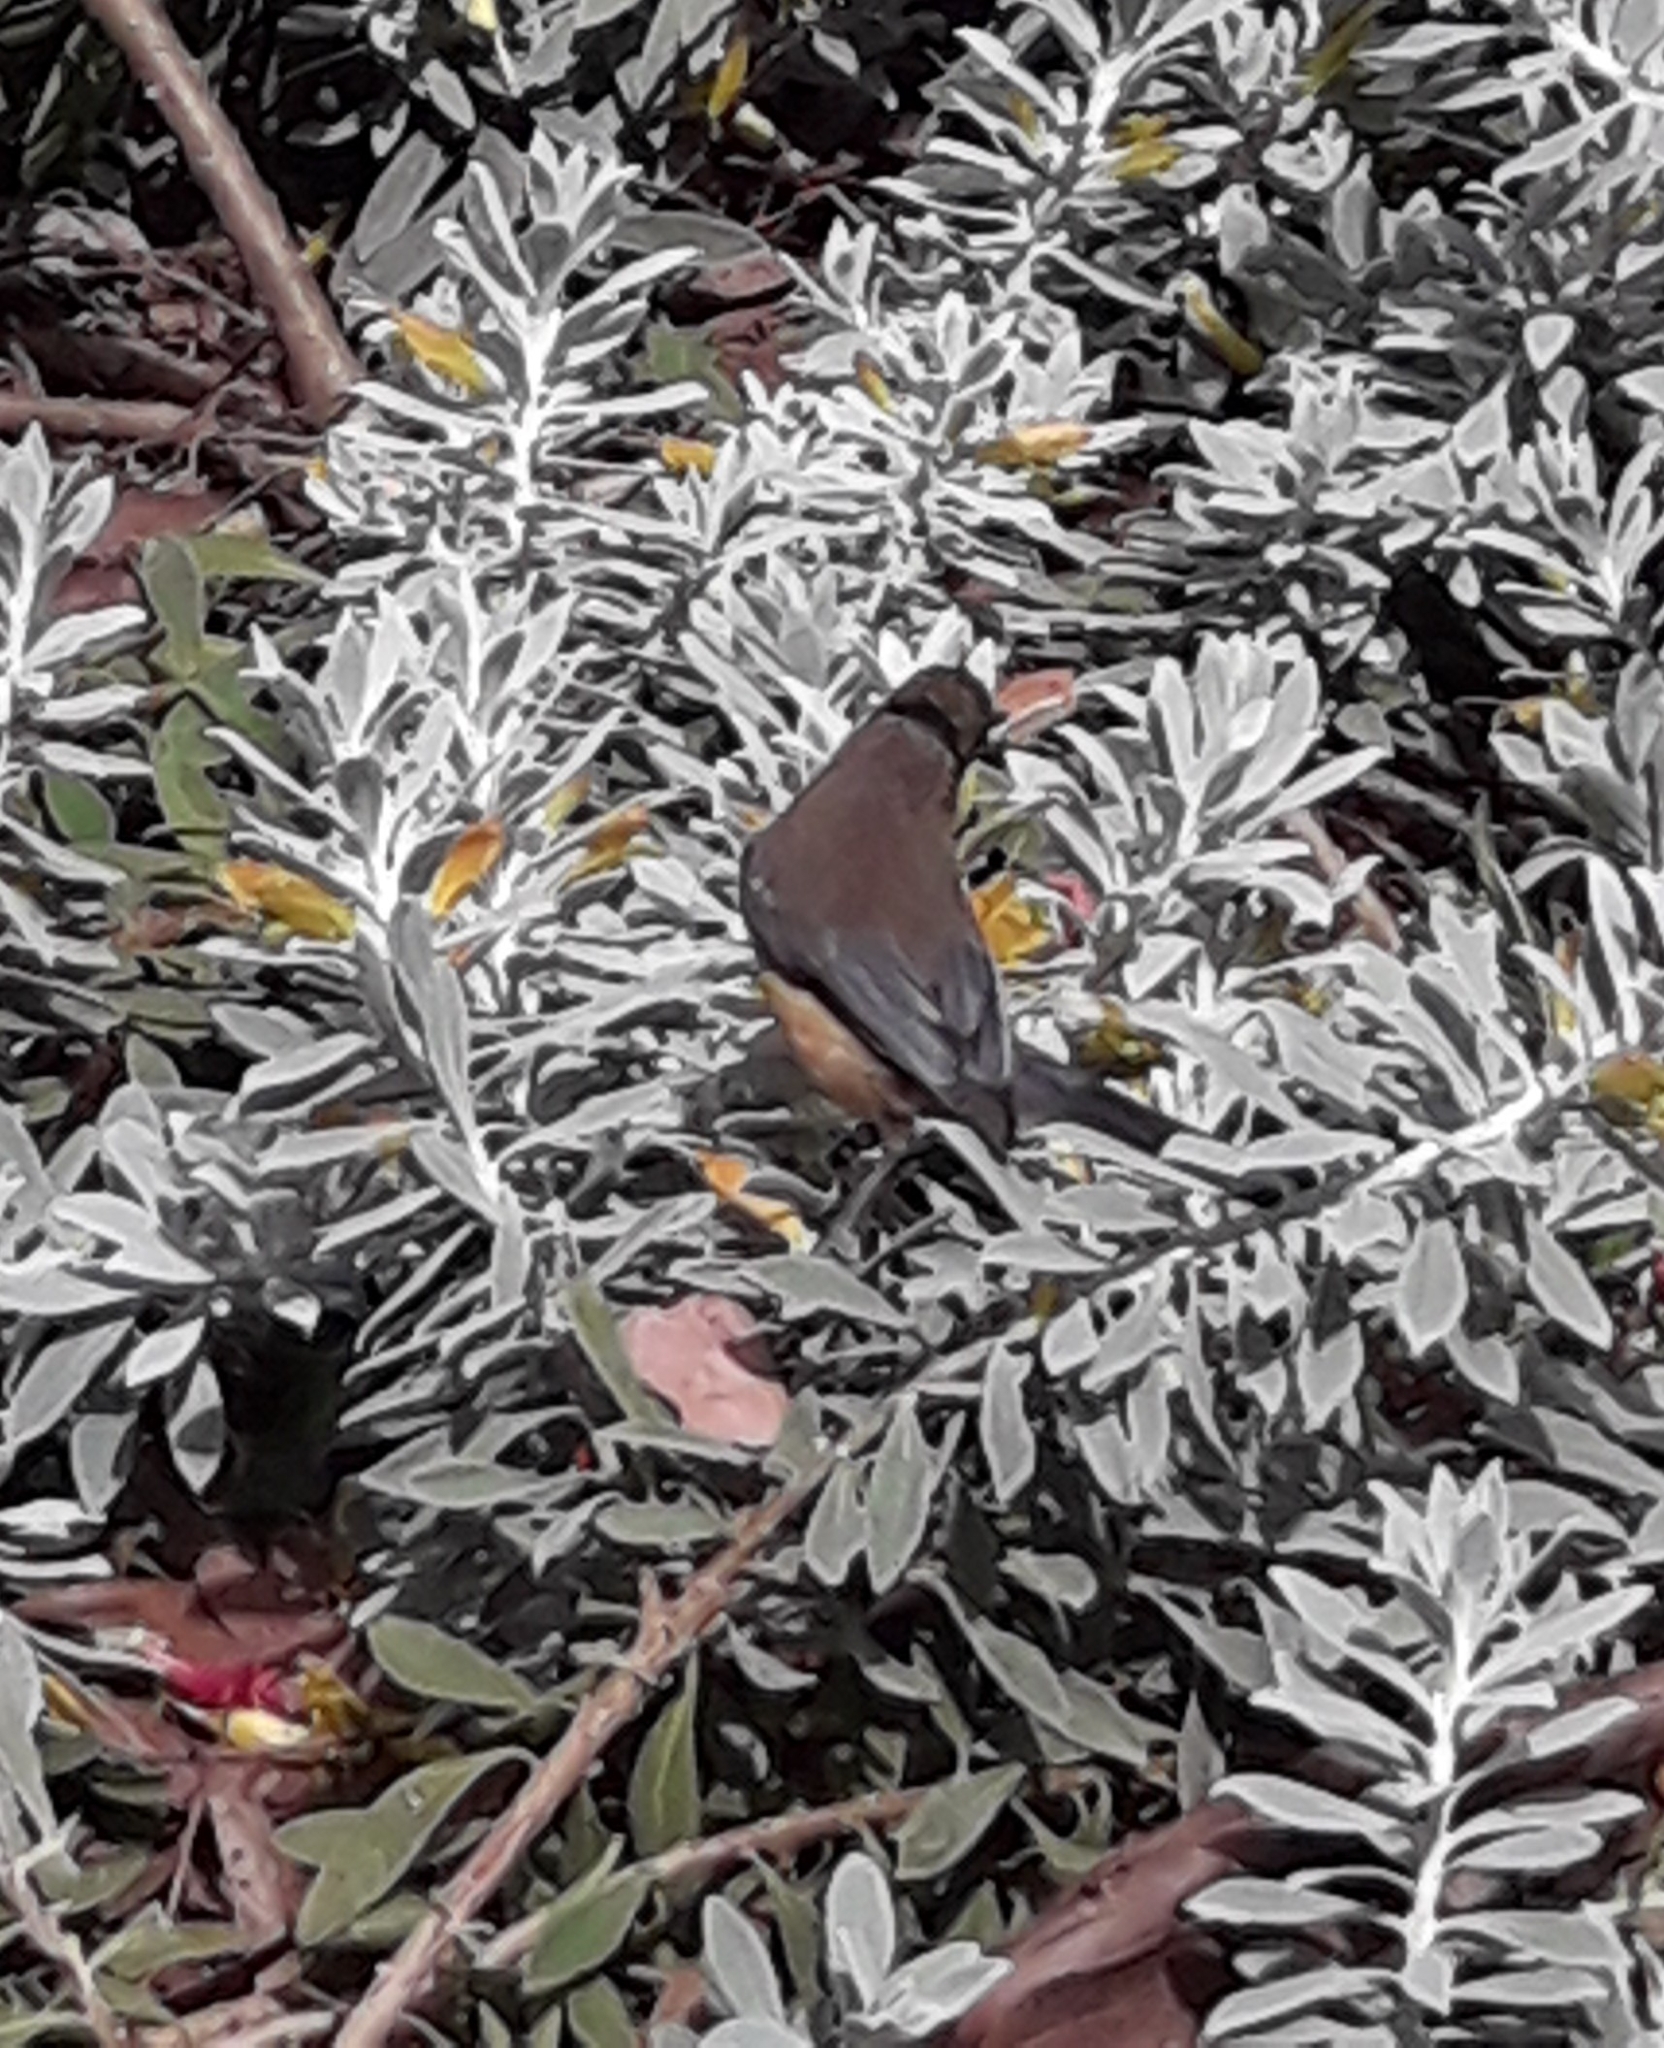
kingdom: Animalia
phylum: Chordata
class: Aves
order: Passeriformes
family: Meliphagidae
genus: Acanthorhynchus
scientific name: Acanthorhynchus tenuirostris
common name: Eastern spinebill
